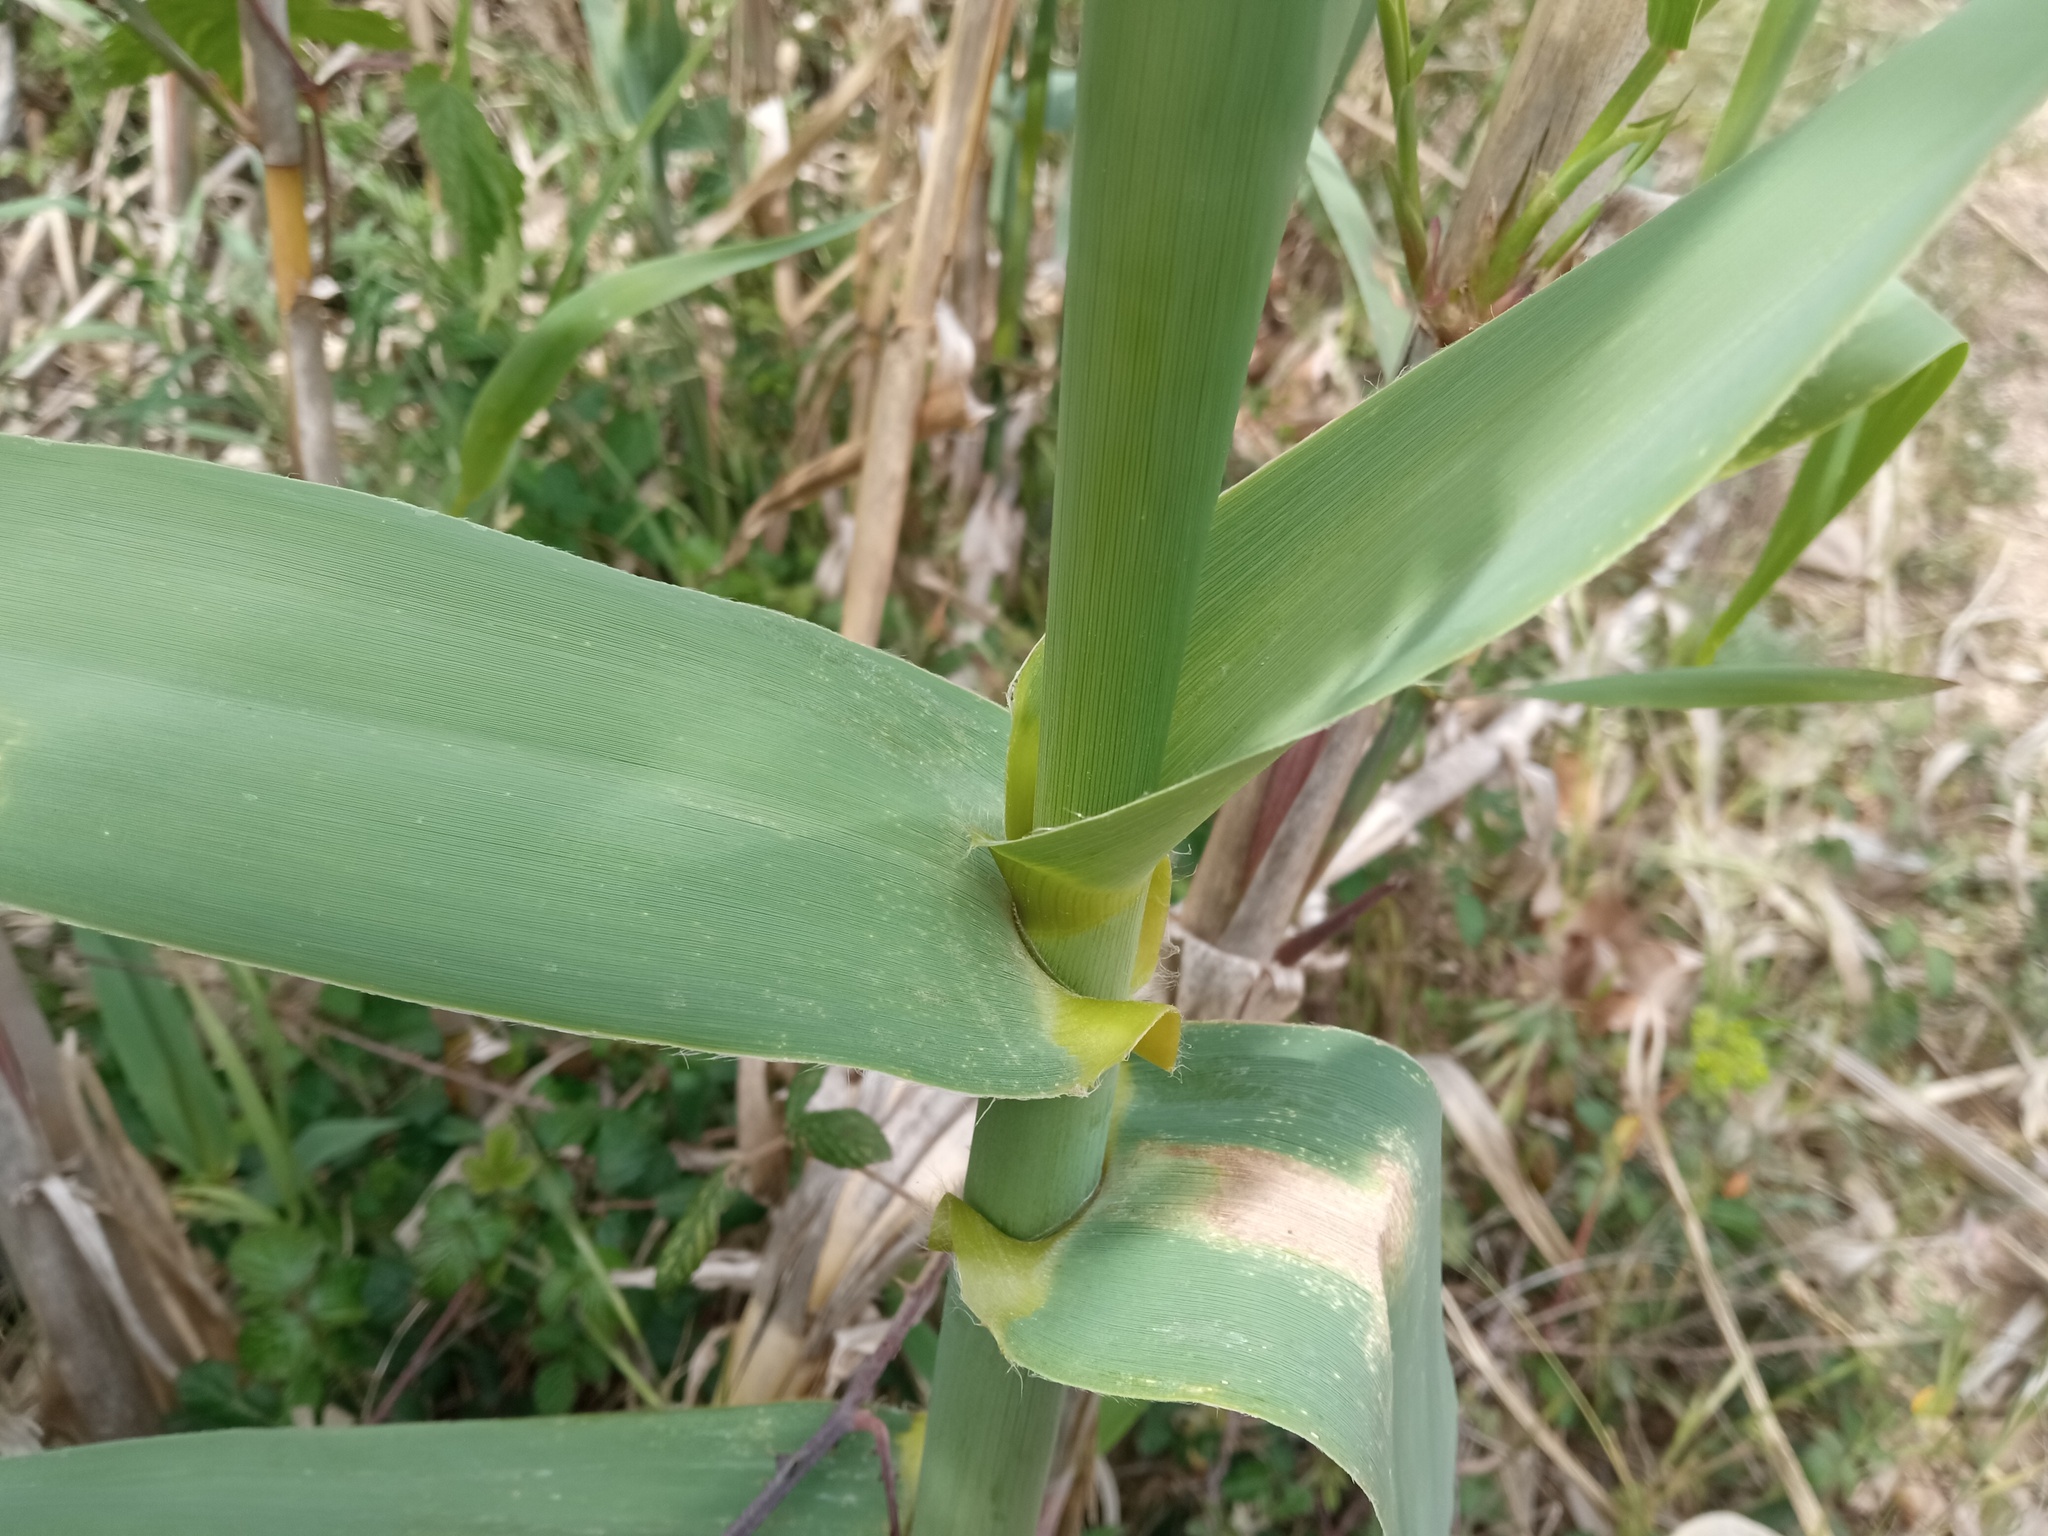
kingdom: Plantae
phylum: Tracheophyta
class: Liliopsida
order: Poales
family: Poaceae
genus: Arundo
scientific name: Arundo donax
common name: Giant reed
